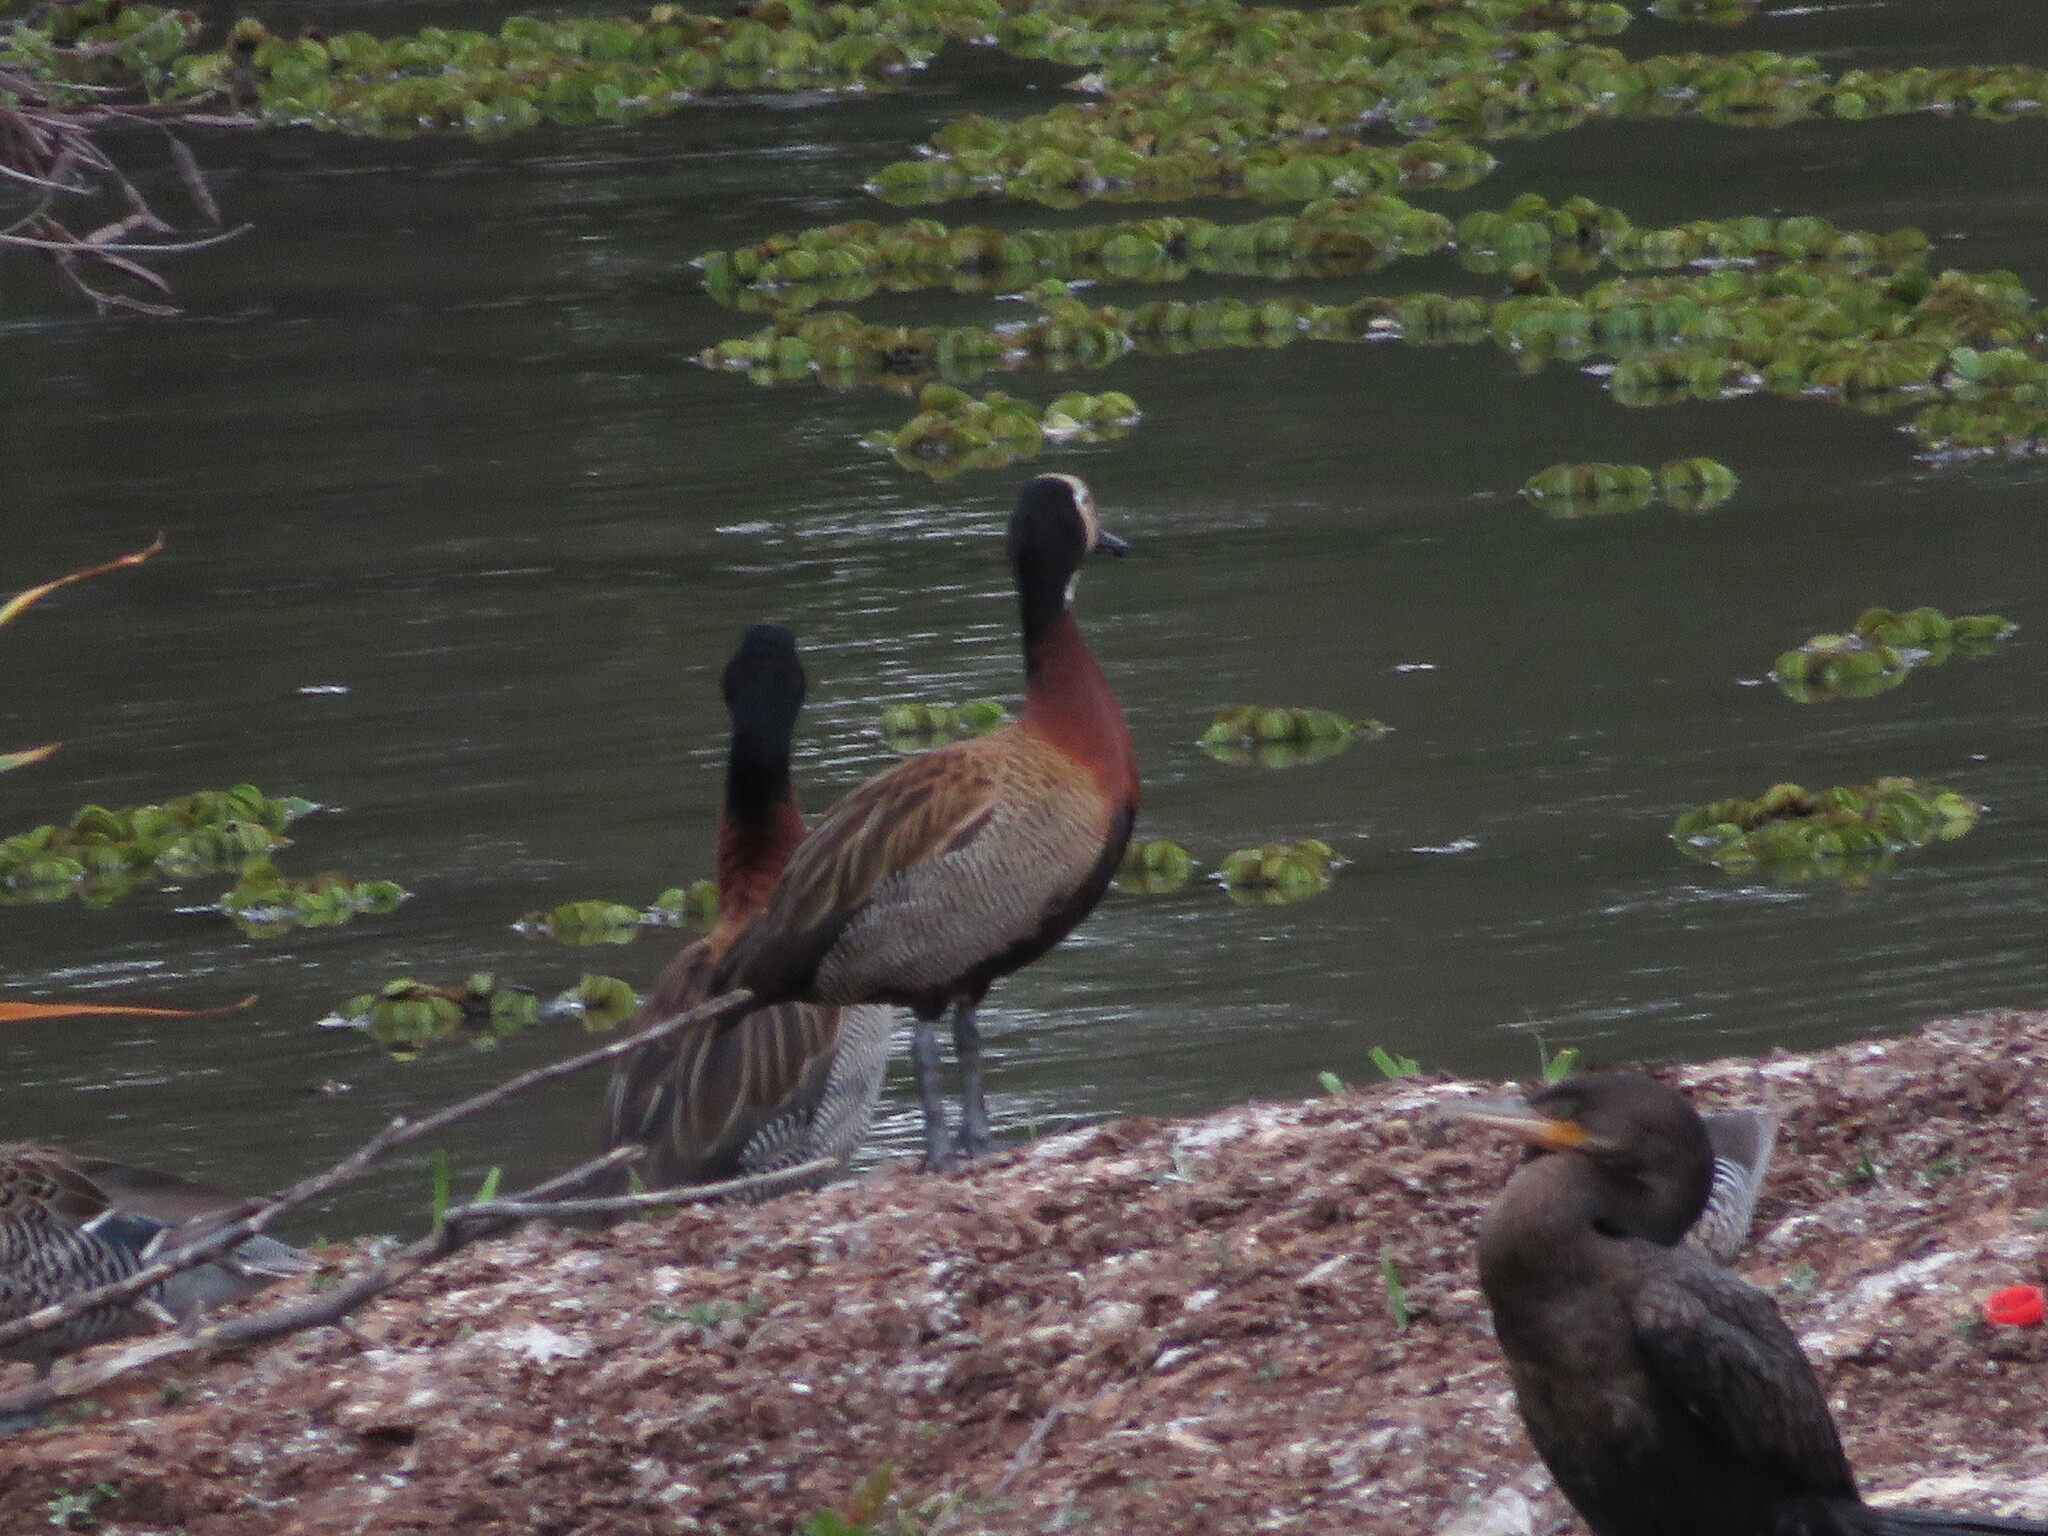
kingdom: Animalia
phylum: Chordata
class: Aves
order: Suliformes
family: Phalacrocoracidae
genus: Phalacrocorax
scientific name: Phalacrocorax brasilianus
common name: Neotropic cormorant
